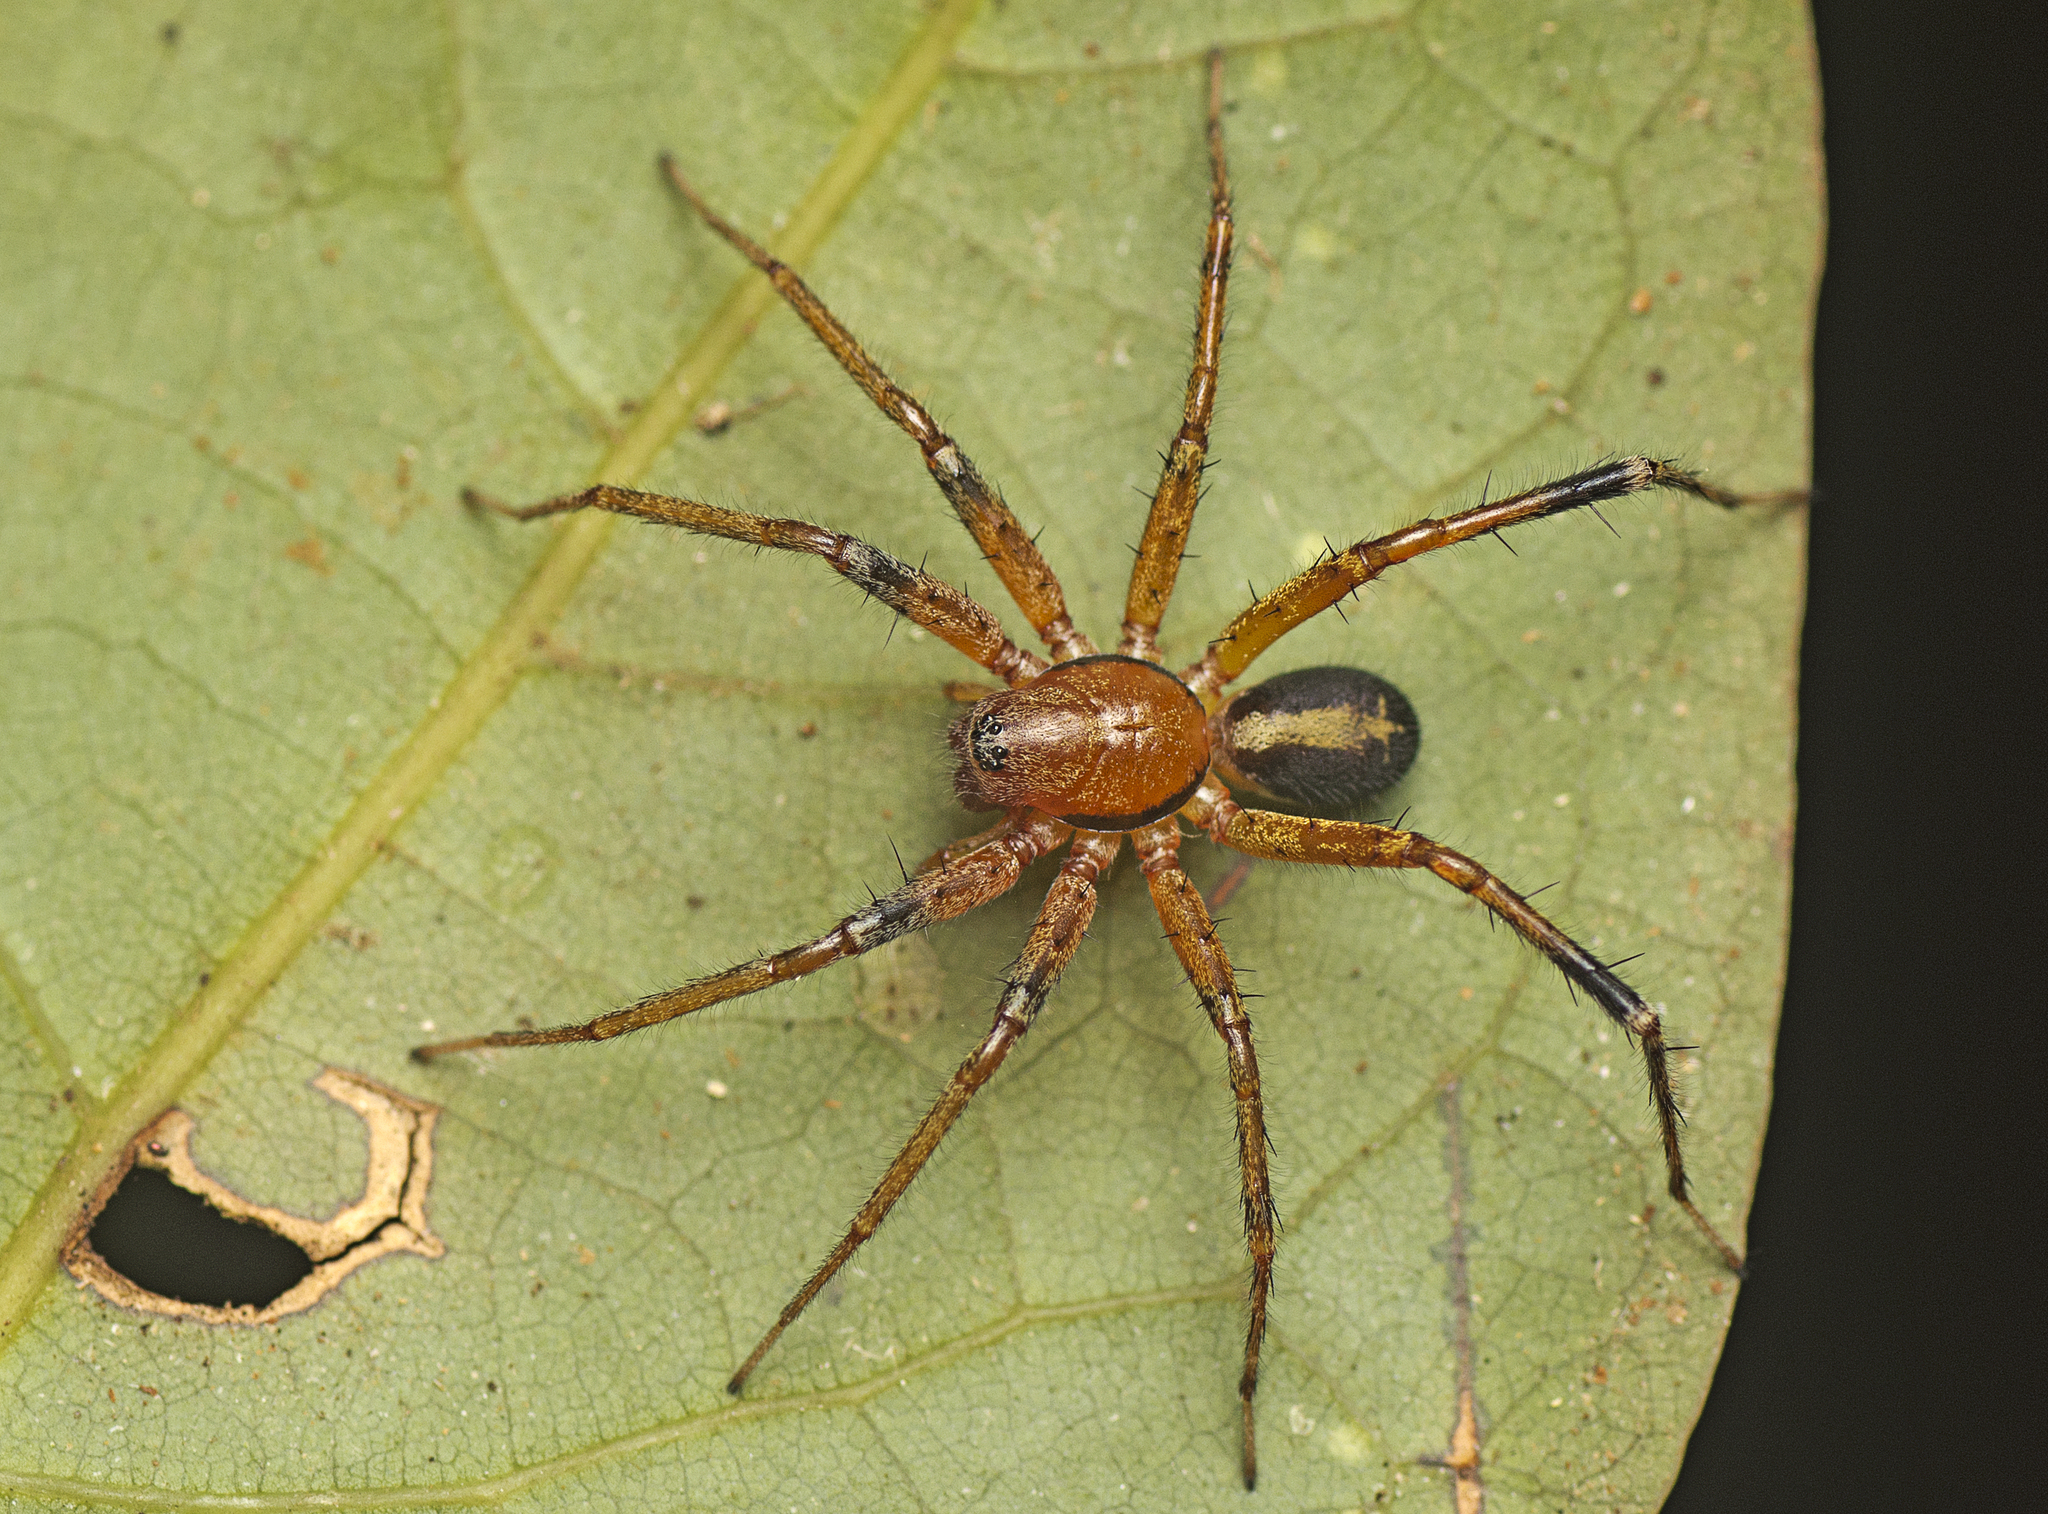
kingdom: Animalia
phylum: Arthropoda
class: Arachnida
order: Araneae
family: Corinnidae
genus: Copa
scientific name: Copa kabana
